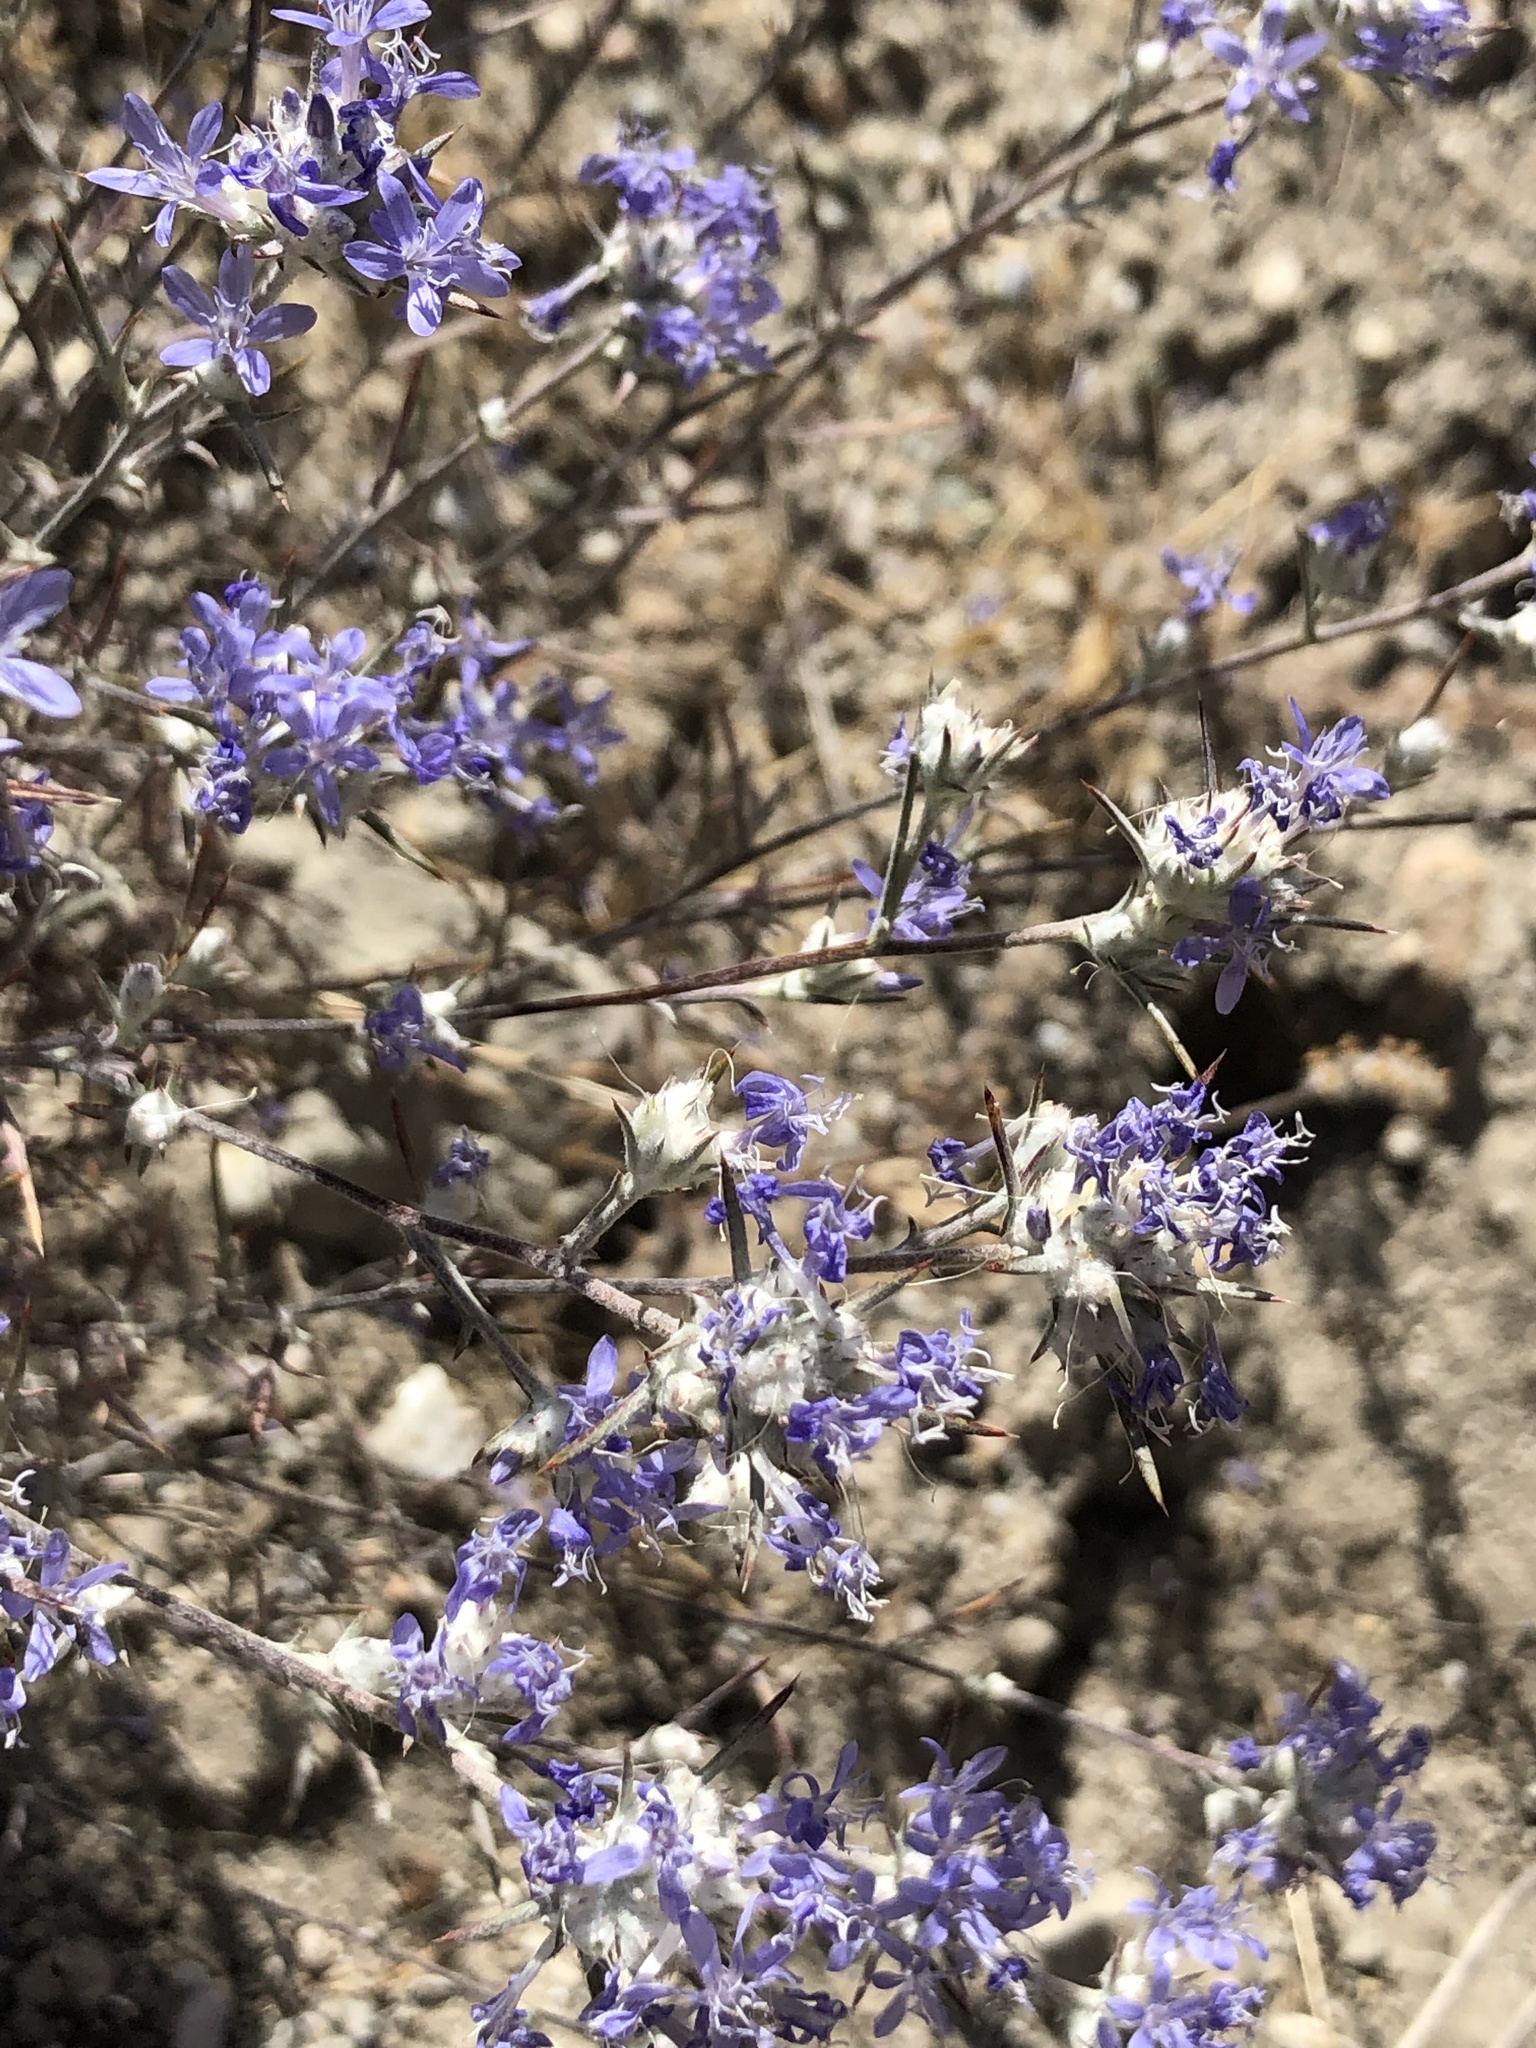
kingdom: Plantae
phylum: Tracheophyta
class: Magnoliopsida
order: Ericales
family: Polemoniaceae
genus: Eriastrum
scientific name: Eriastrum densifolium
